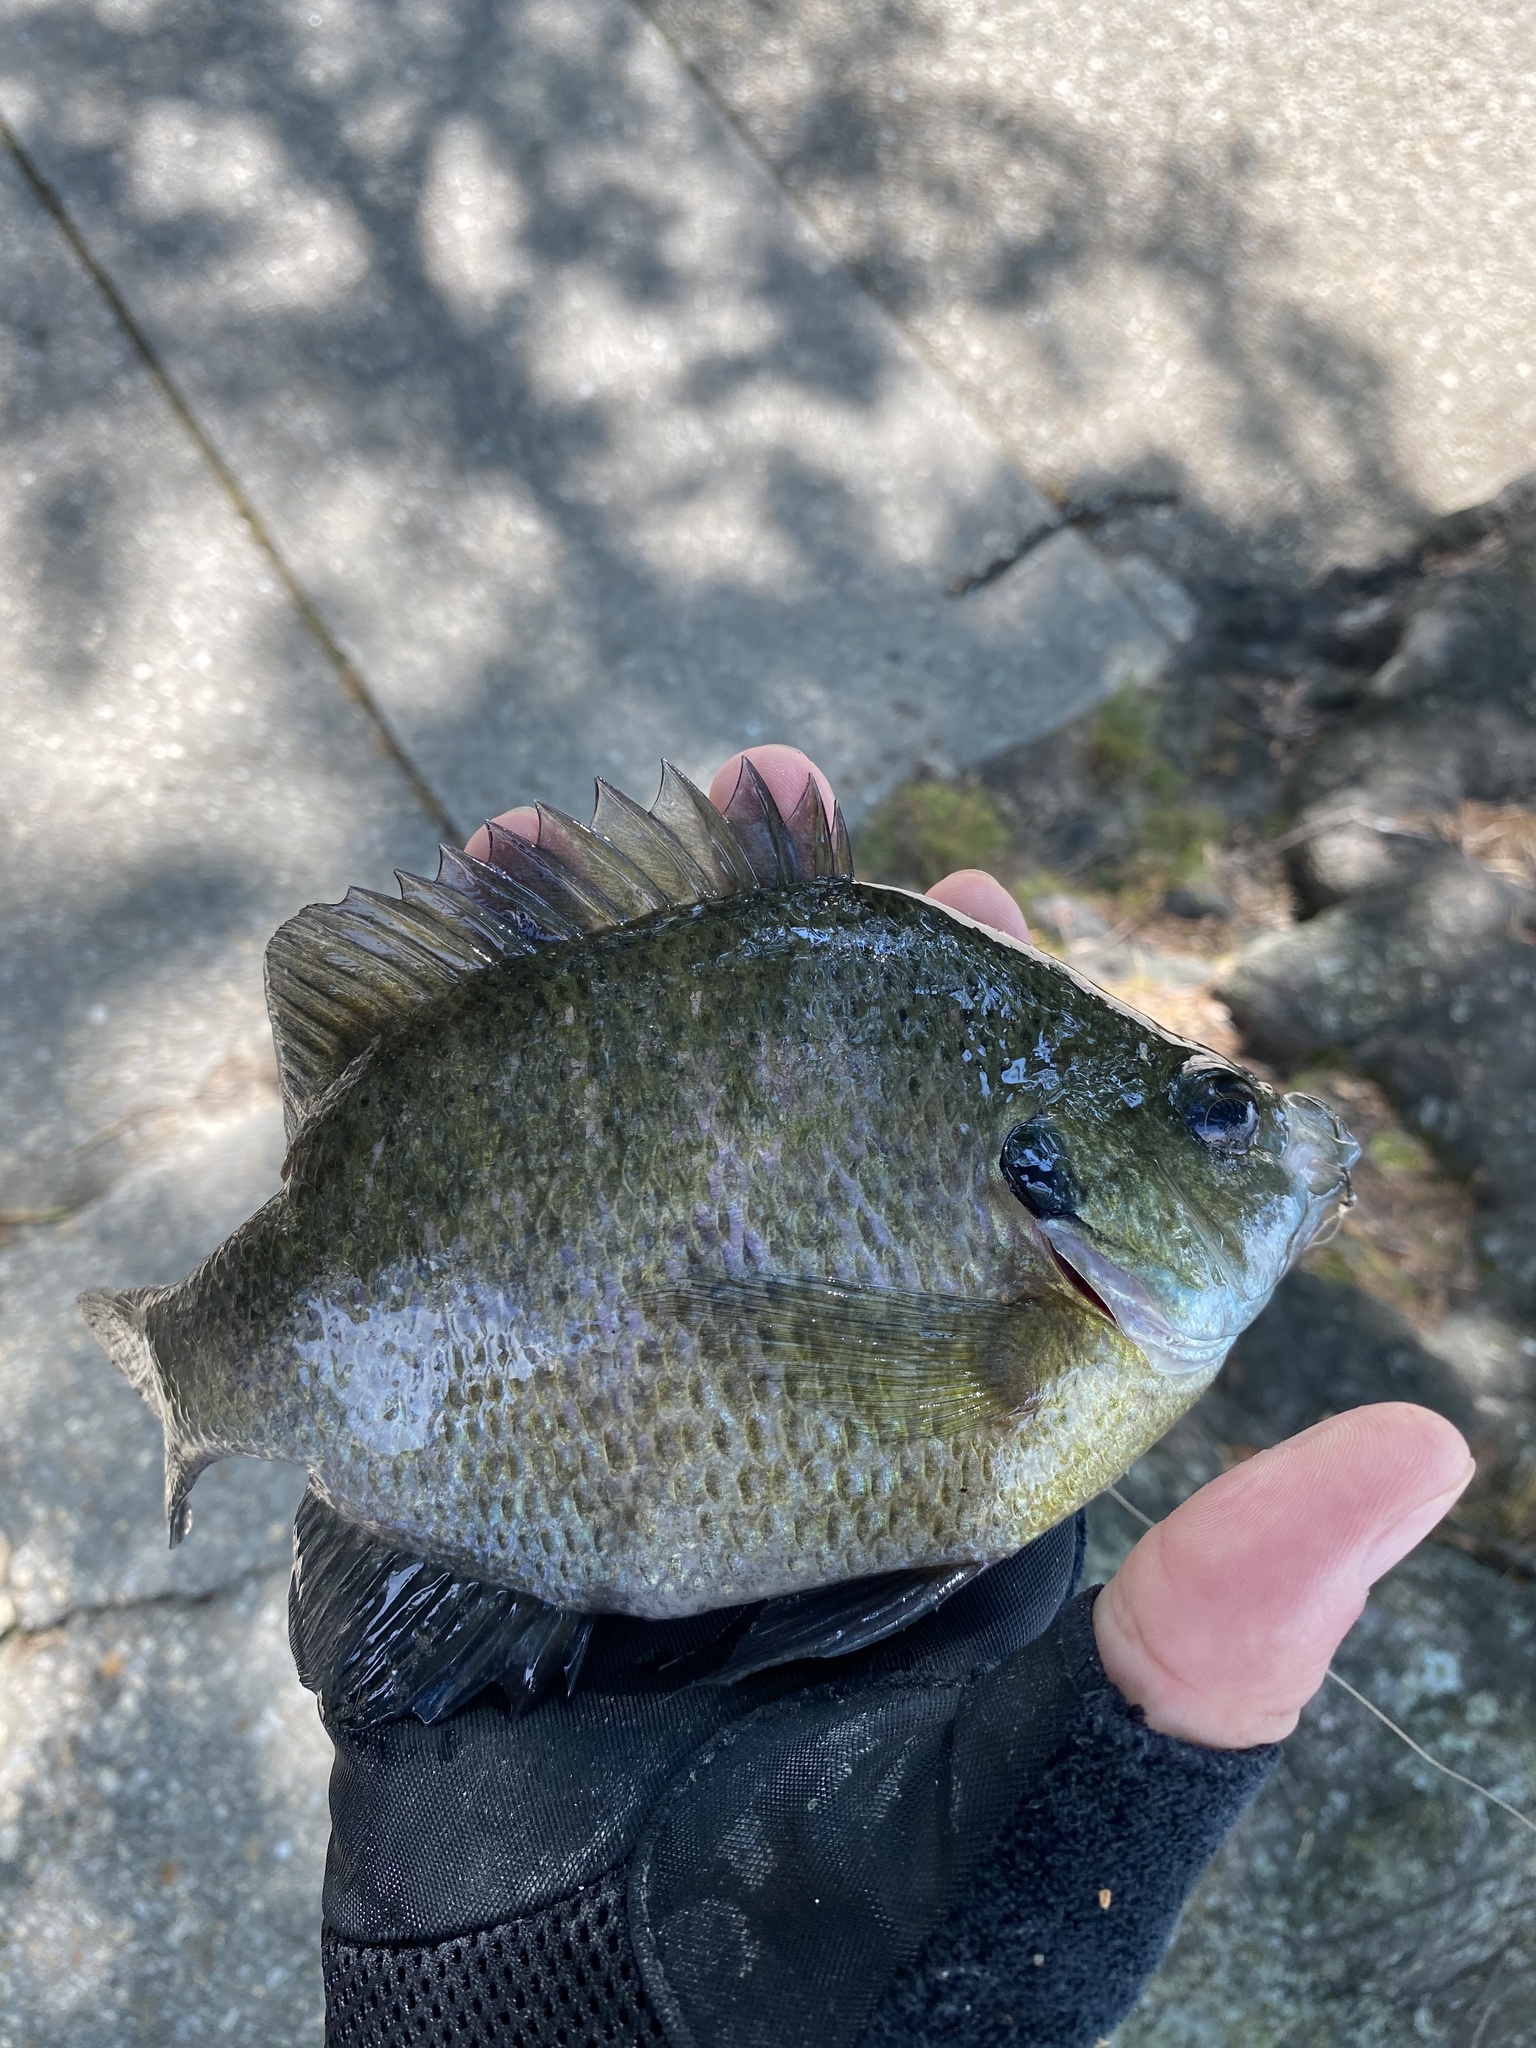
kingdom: Animalia
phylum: Chordata
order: Perciformes
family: Centrarchidae
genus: Lepomis
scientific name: Lepomis macrochirus
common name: Bluegill
